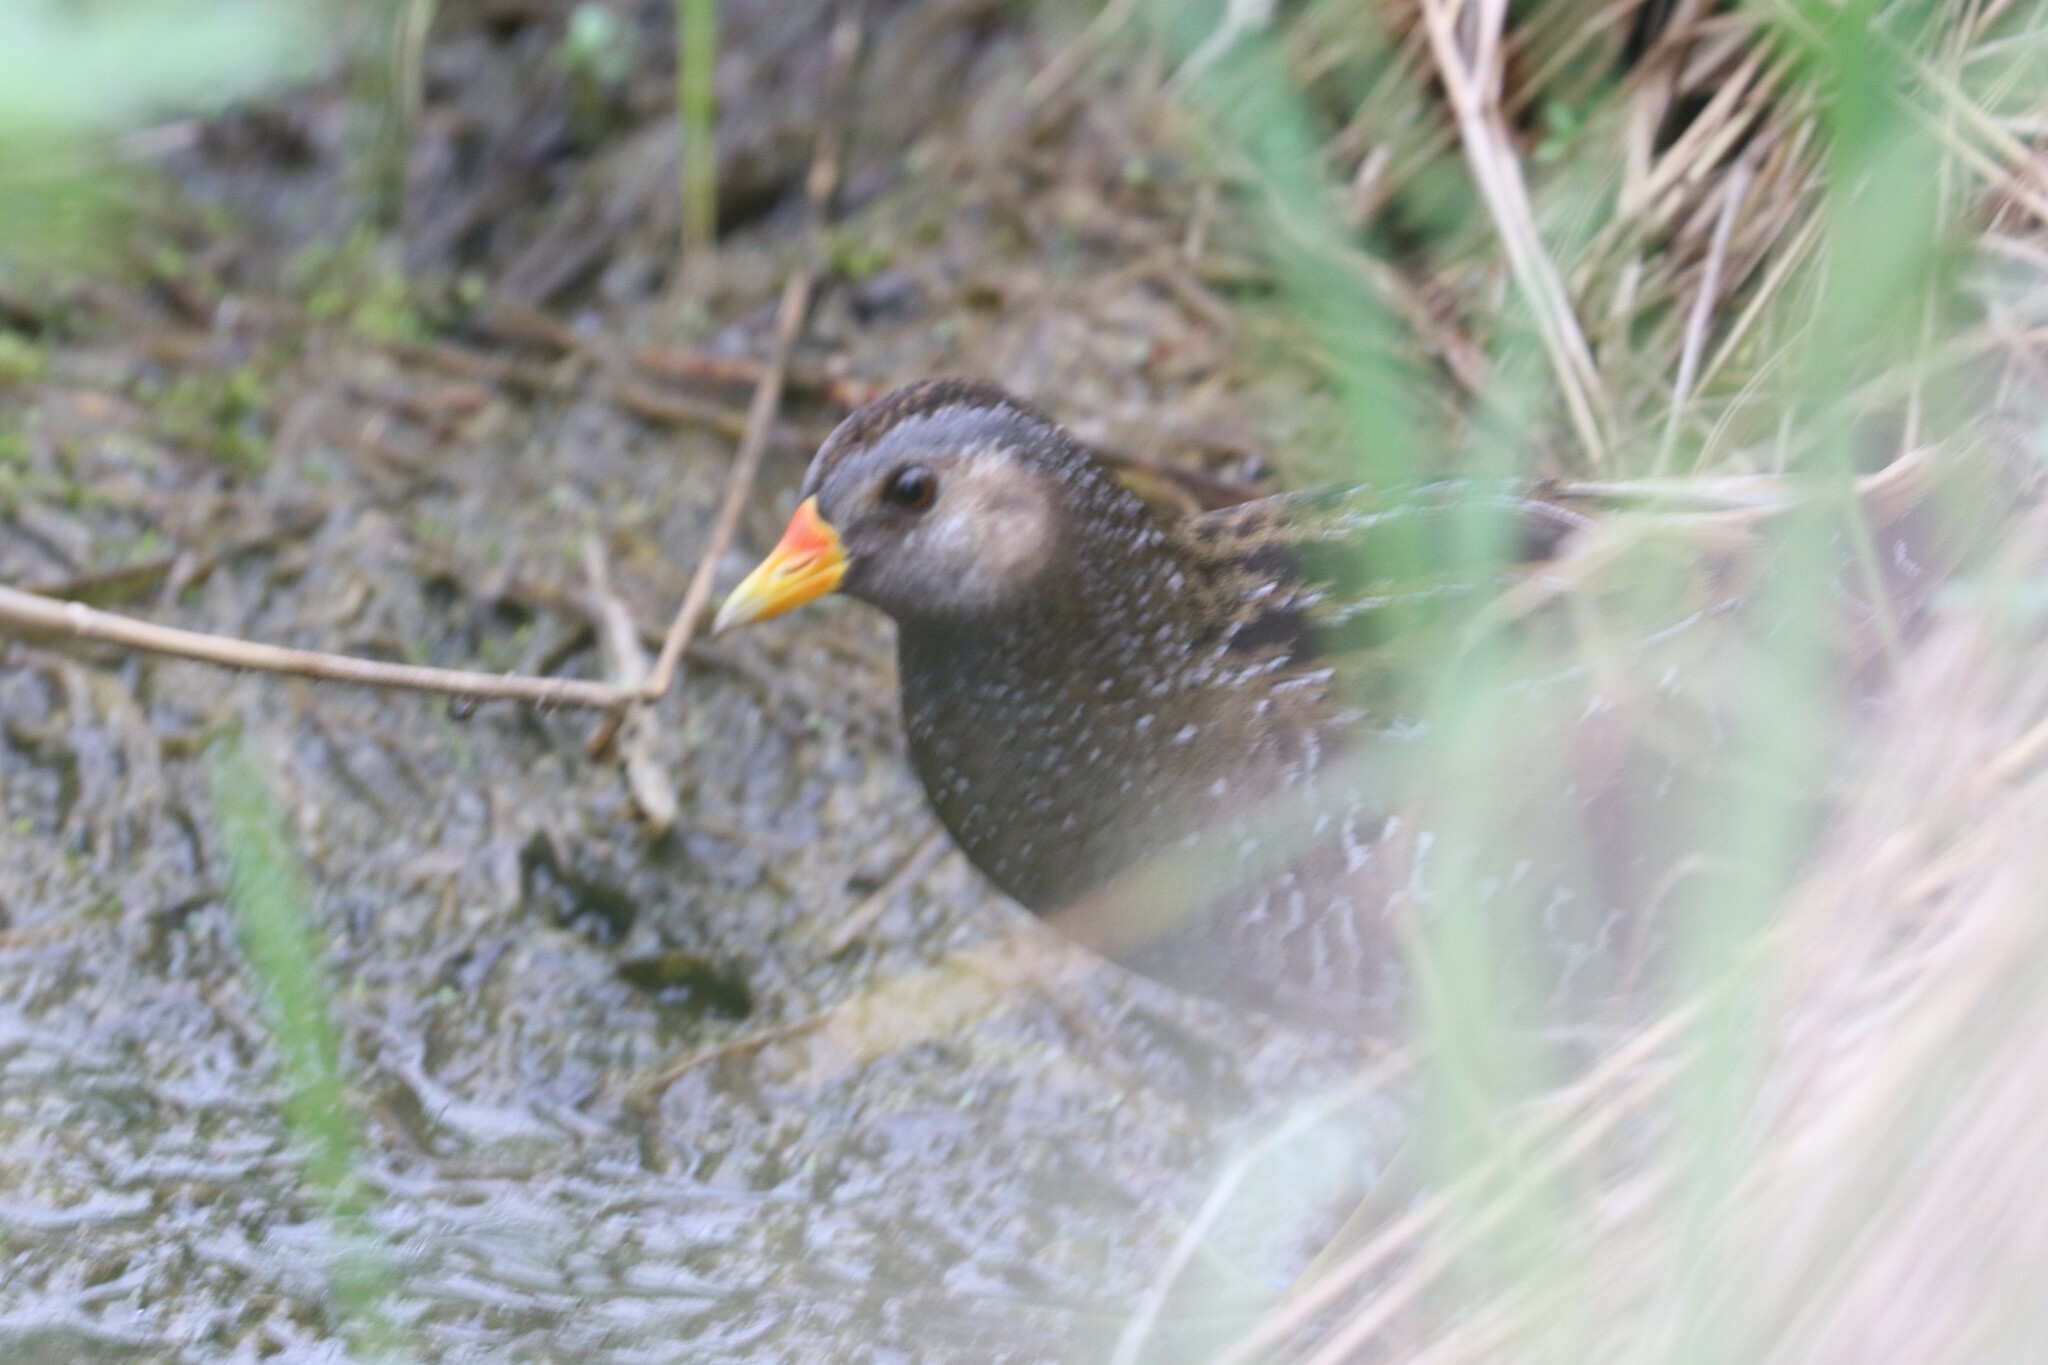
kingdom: Animalia
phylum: Chordata
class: Aves
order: Gruiformes
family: Rallidae
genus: Porzana
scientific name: Porzana porzana
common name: Spotted crake
